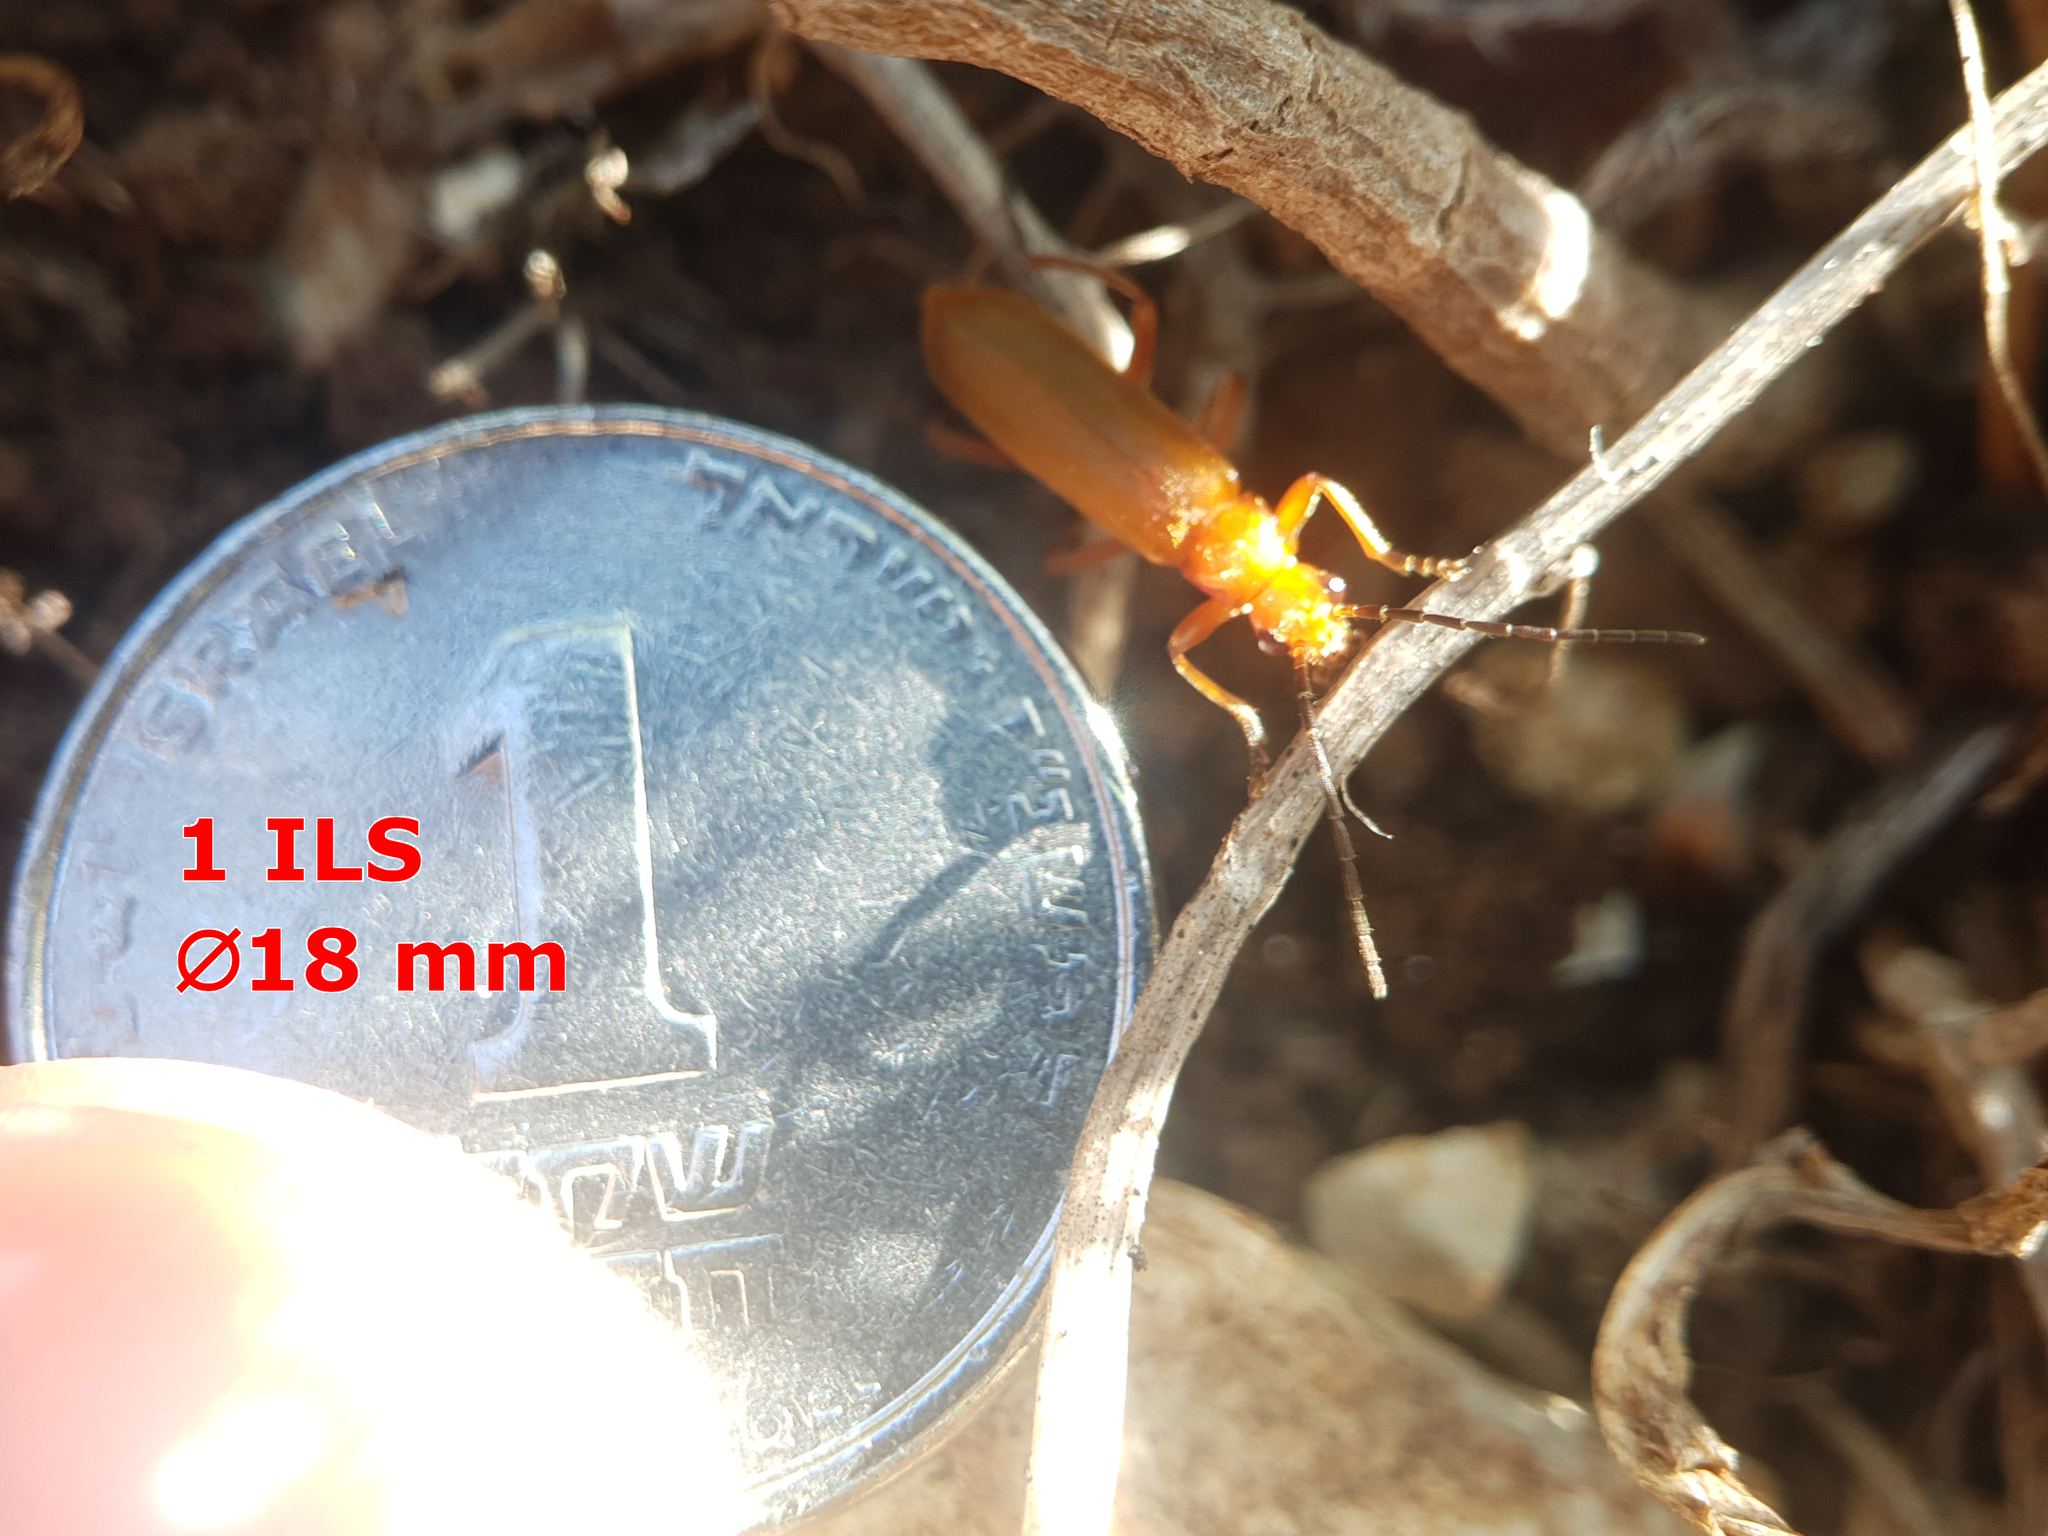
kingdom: Animalia
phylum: Arthropoda
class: Insecta
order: Coleoptera
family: Cantharidae
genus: Cantharis
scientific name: Cantharis melaspoides
